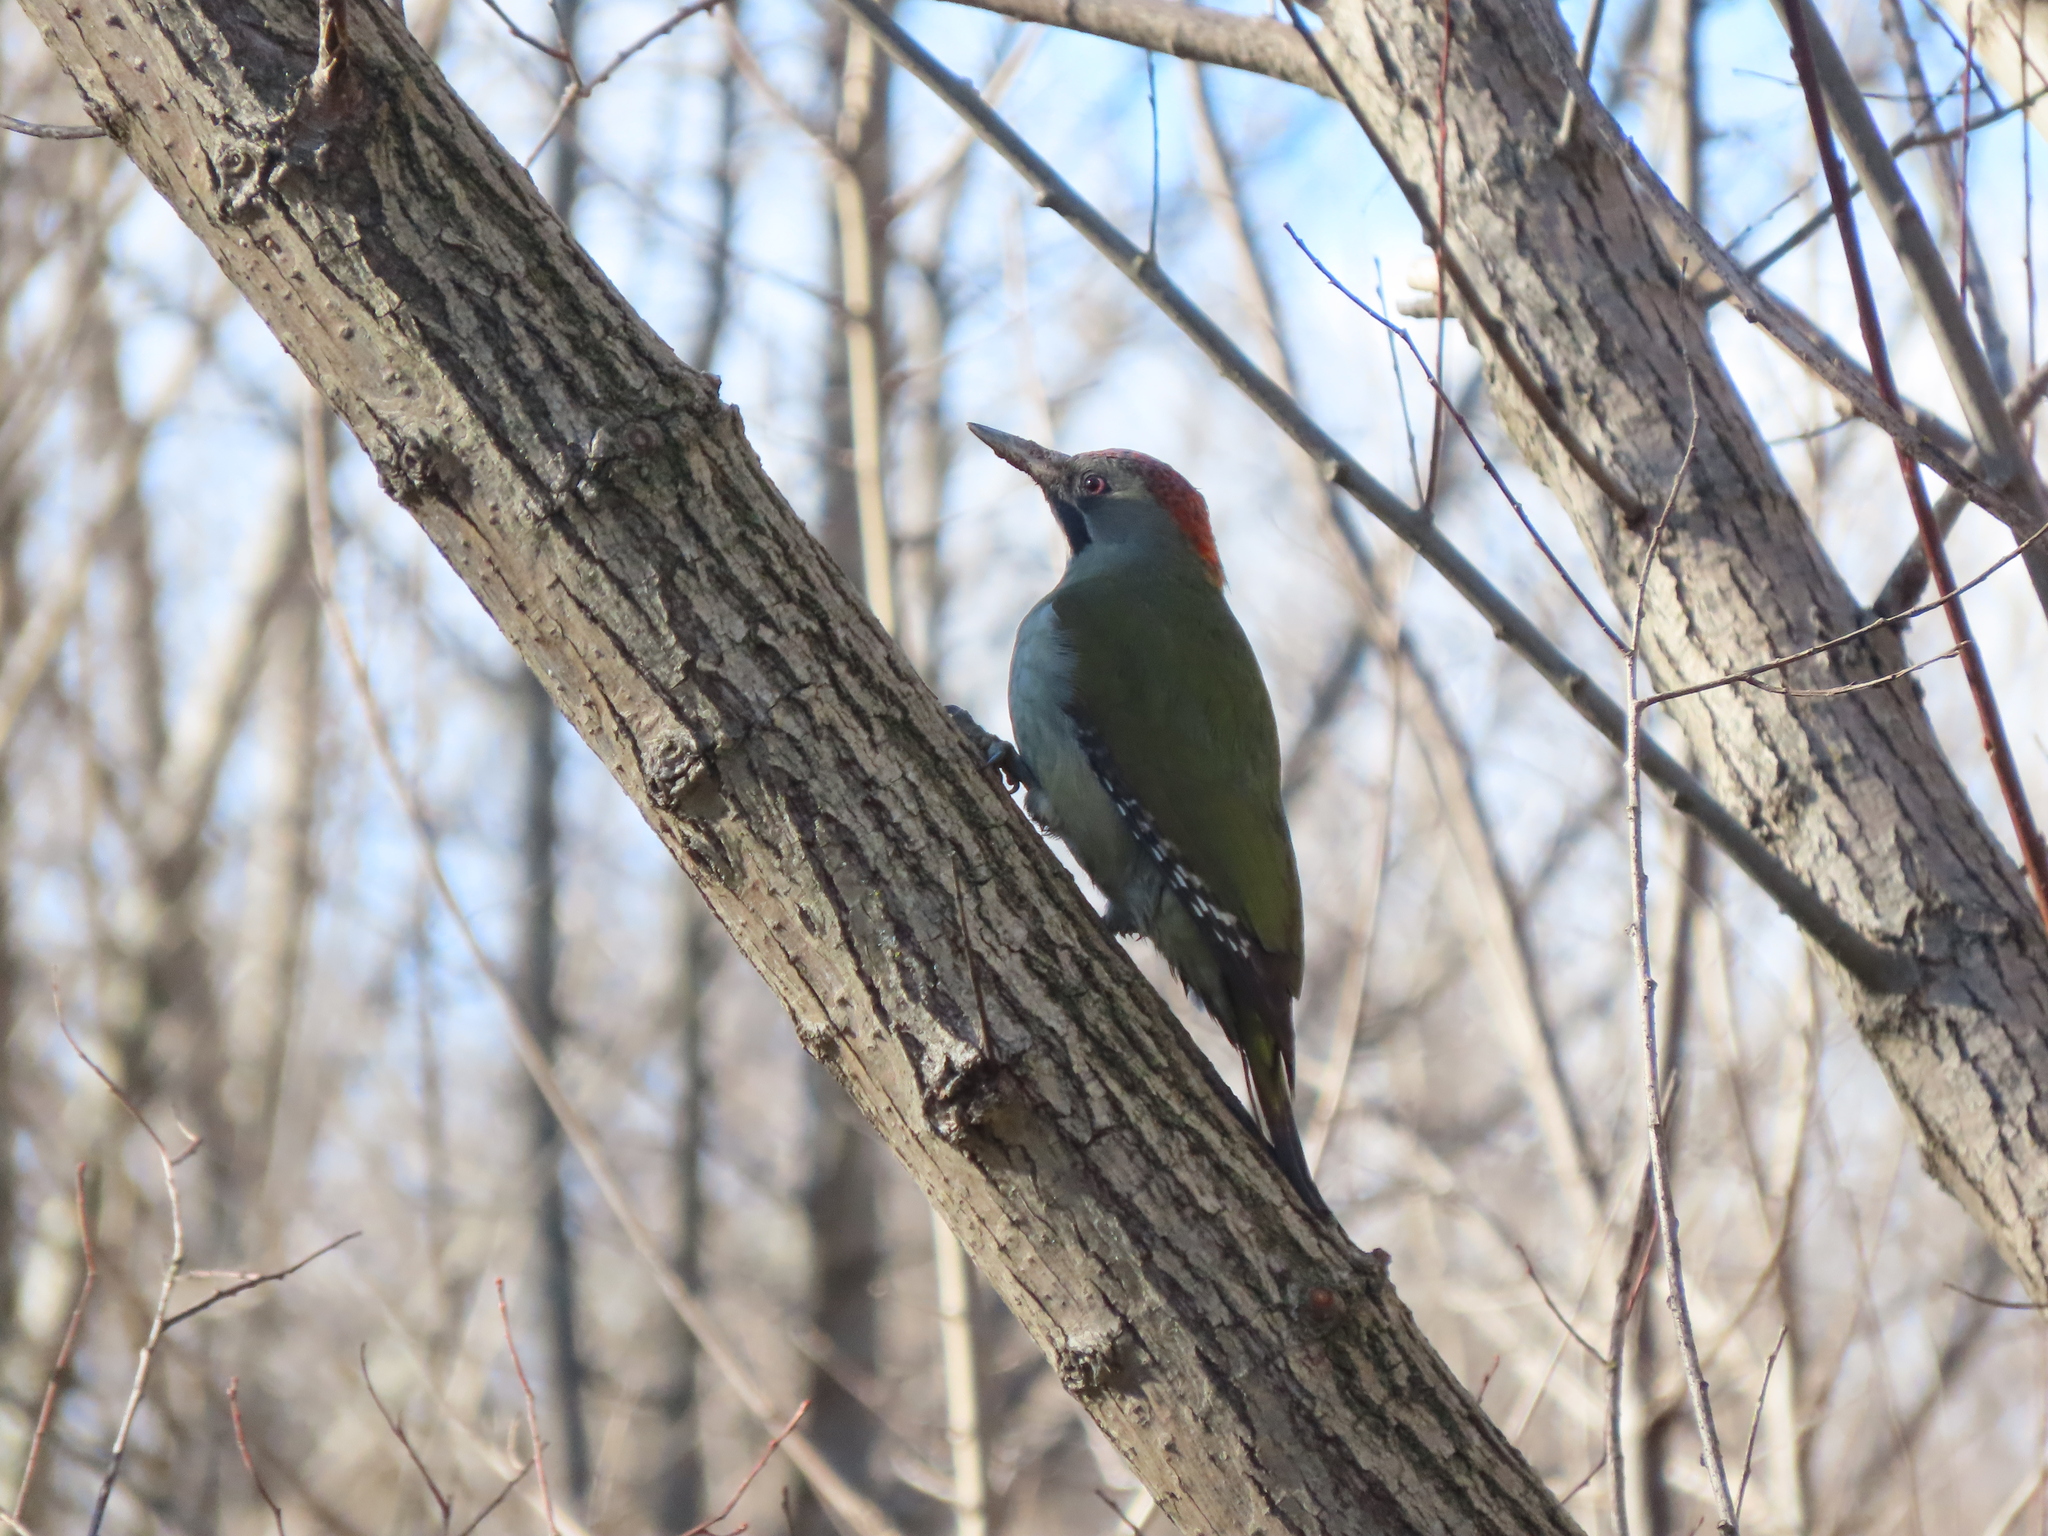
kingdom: Animalia
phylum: Chordata
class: Aves
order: Piciformes
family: Picidae
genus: Picus
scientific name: Picus sharpei
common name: Iberian green woodpecker
